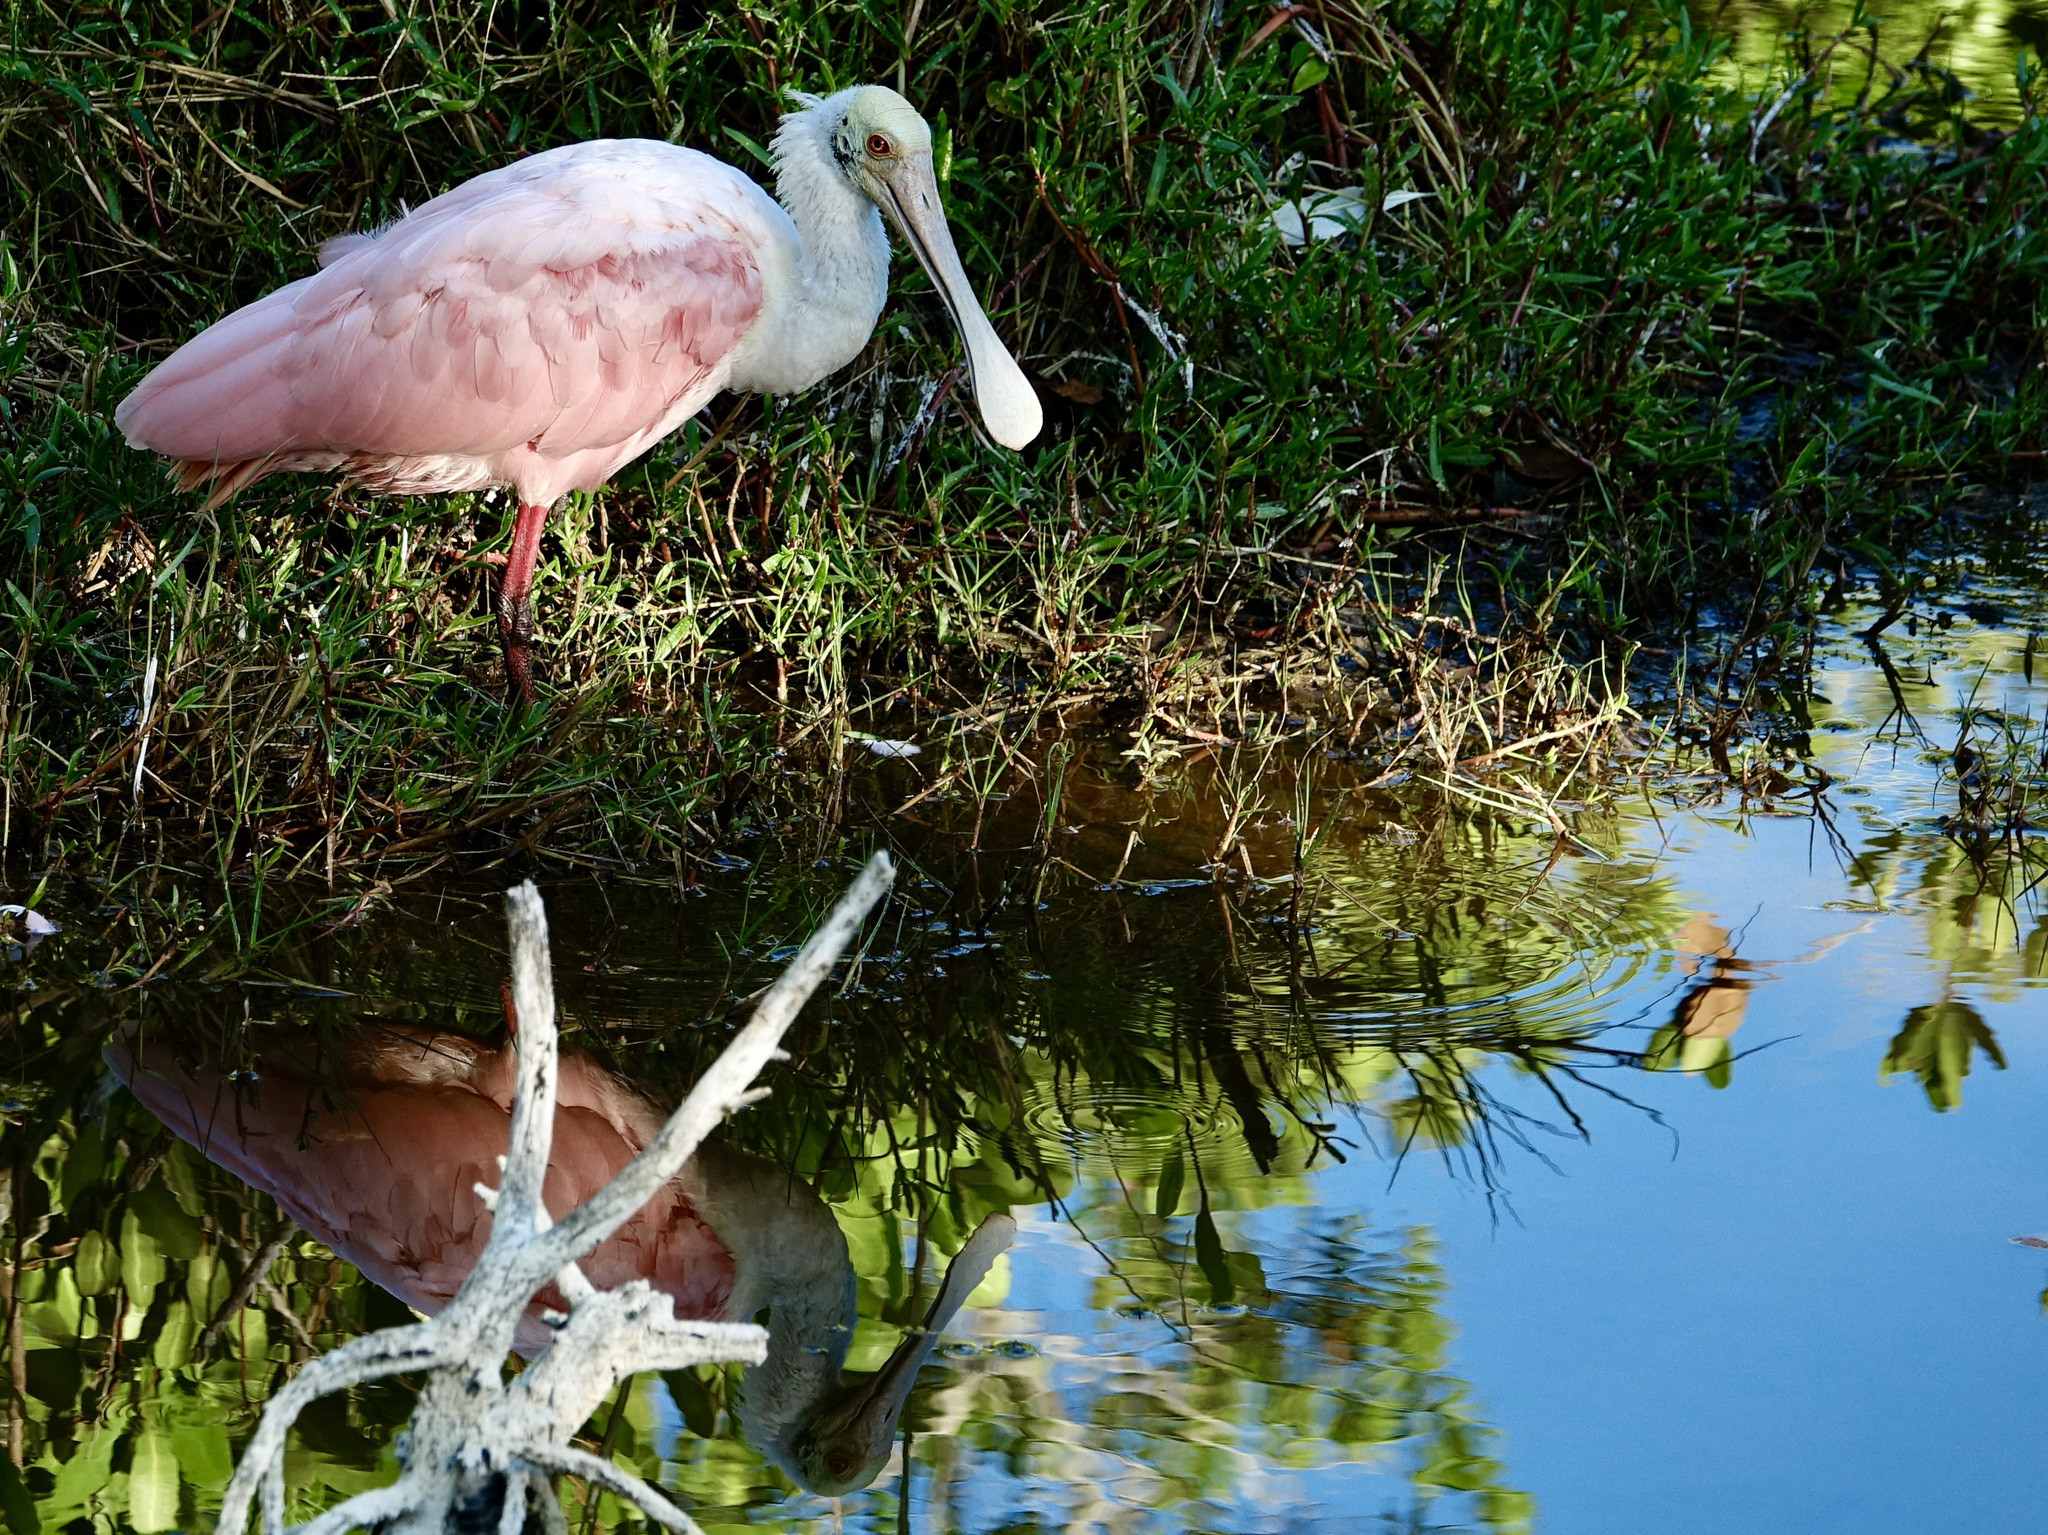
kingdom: Animalia
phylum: Chordata
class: Aves
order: Pelecaniformes
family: Threskiornithidae
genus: Platalea
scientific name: Platalea ajaja
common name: Roseate spoonbill
